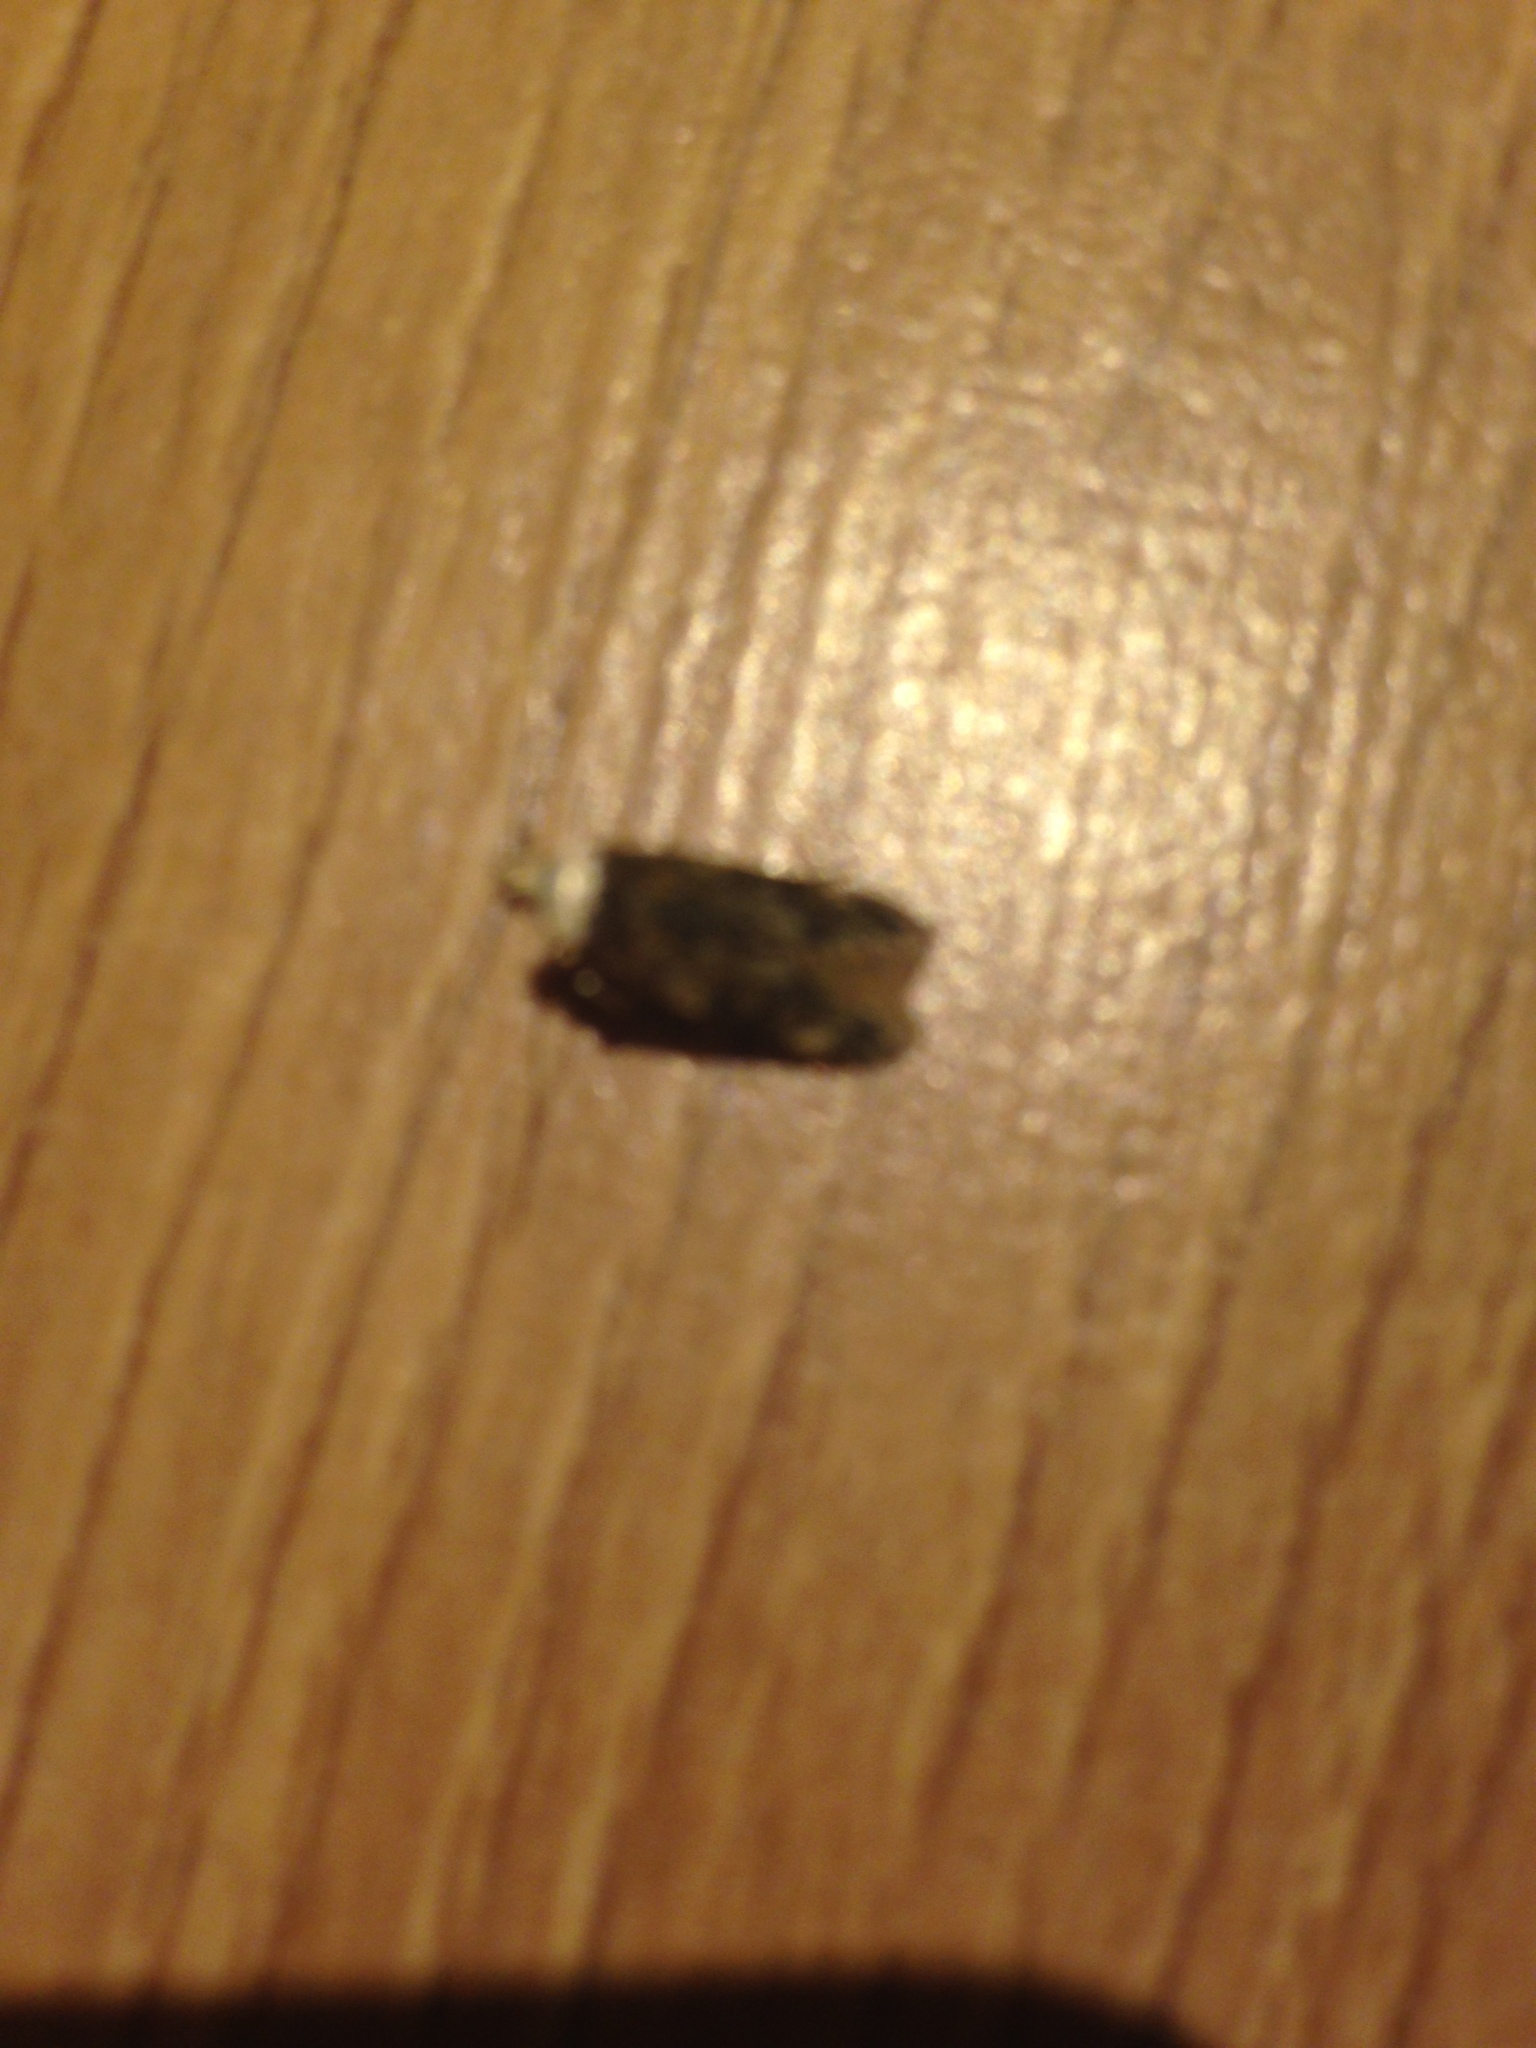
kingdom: Animalia
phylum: Arthropoda
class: Insecta
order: Lepidoptera
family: Oecophoridae
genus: Endrosis
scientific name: Endrosis sarcitrella
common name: White-shouldered house moth
